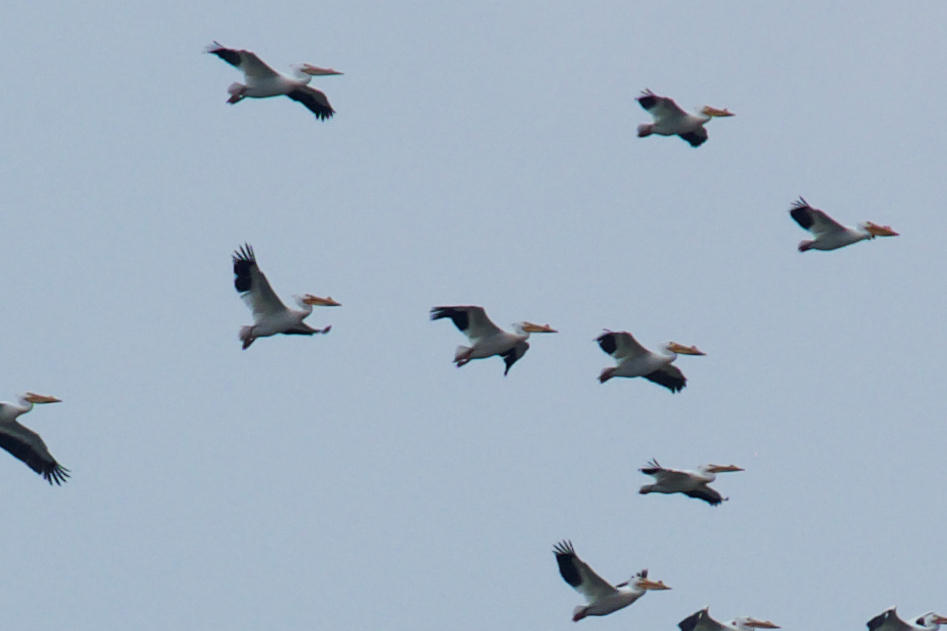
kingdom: Animalia
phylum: Chordata
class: Aves
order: Pelecaniformes
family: Pelecanidae
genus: Pelecanus
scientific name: Pelecanus erythrorhynchos
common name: American white pelican
